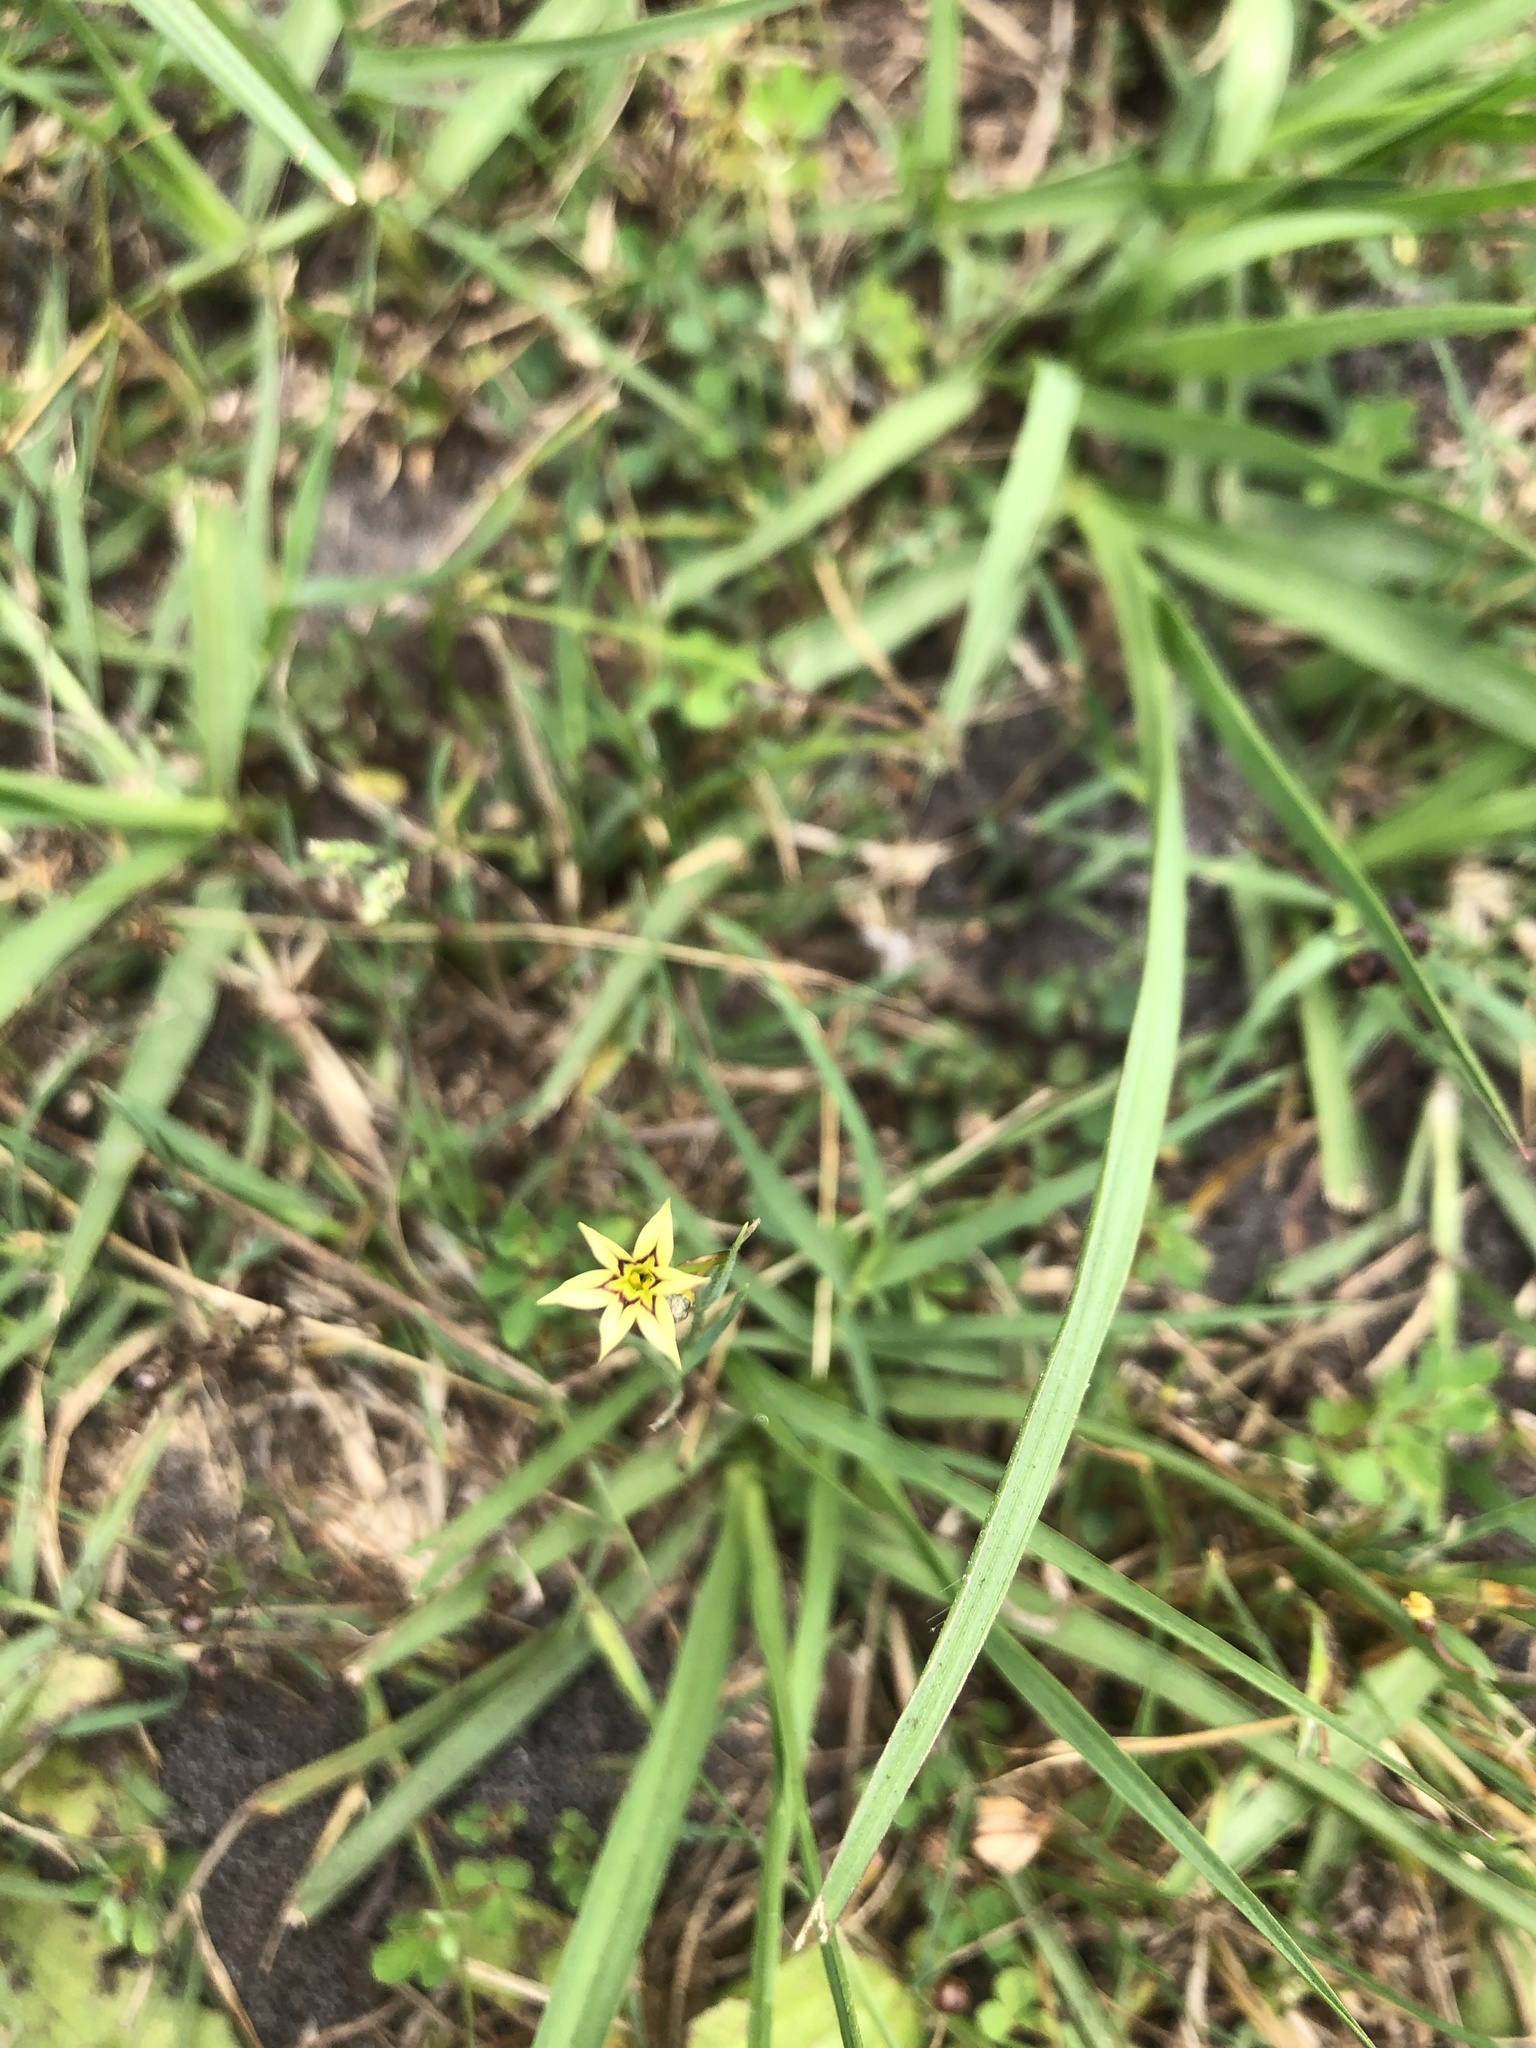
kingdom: Plantae
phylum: Tracheophyta
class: Liliopsida
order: Asparagales
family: Iridaceae
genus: Sisyrinchium
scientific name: Sisyrinchium micranthum
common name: Bermuda pigroot
